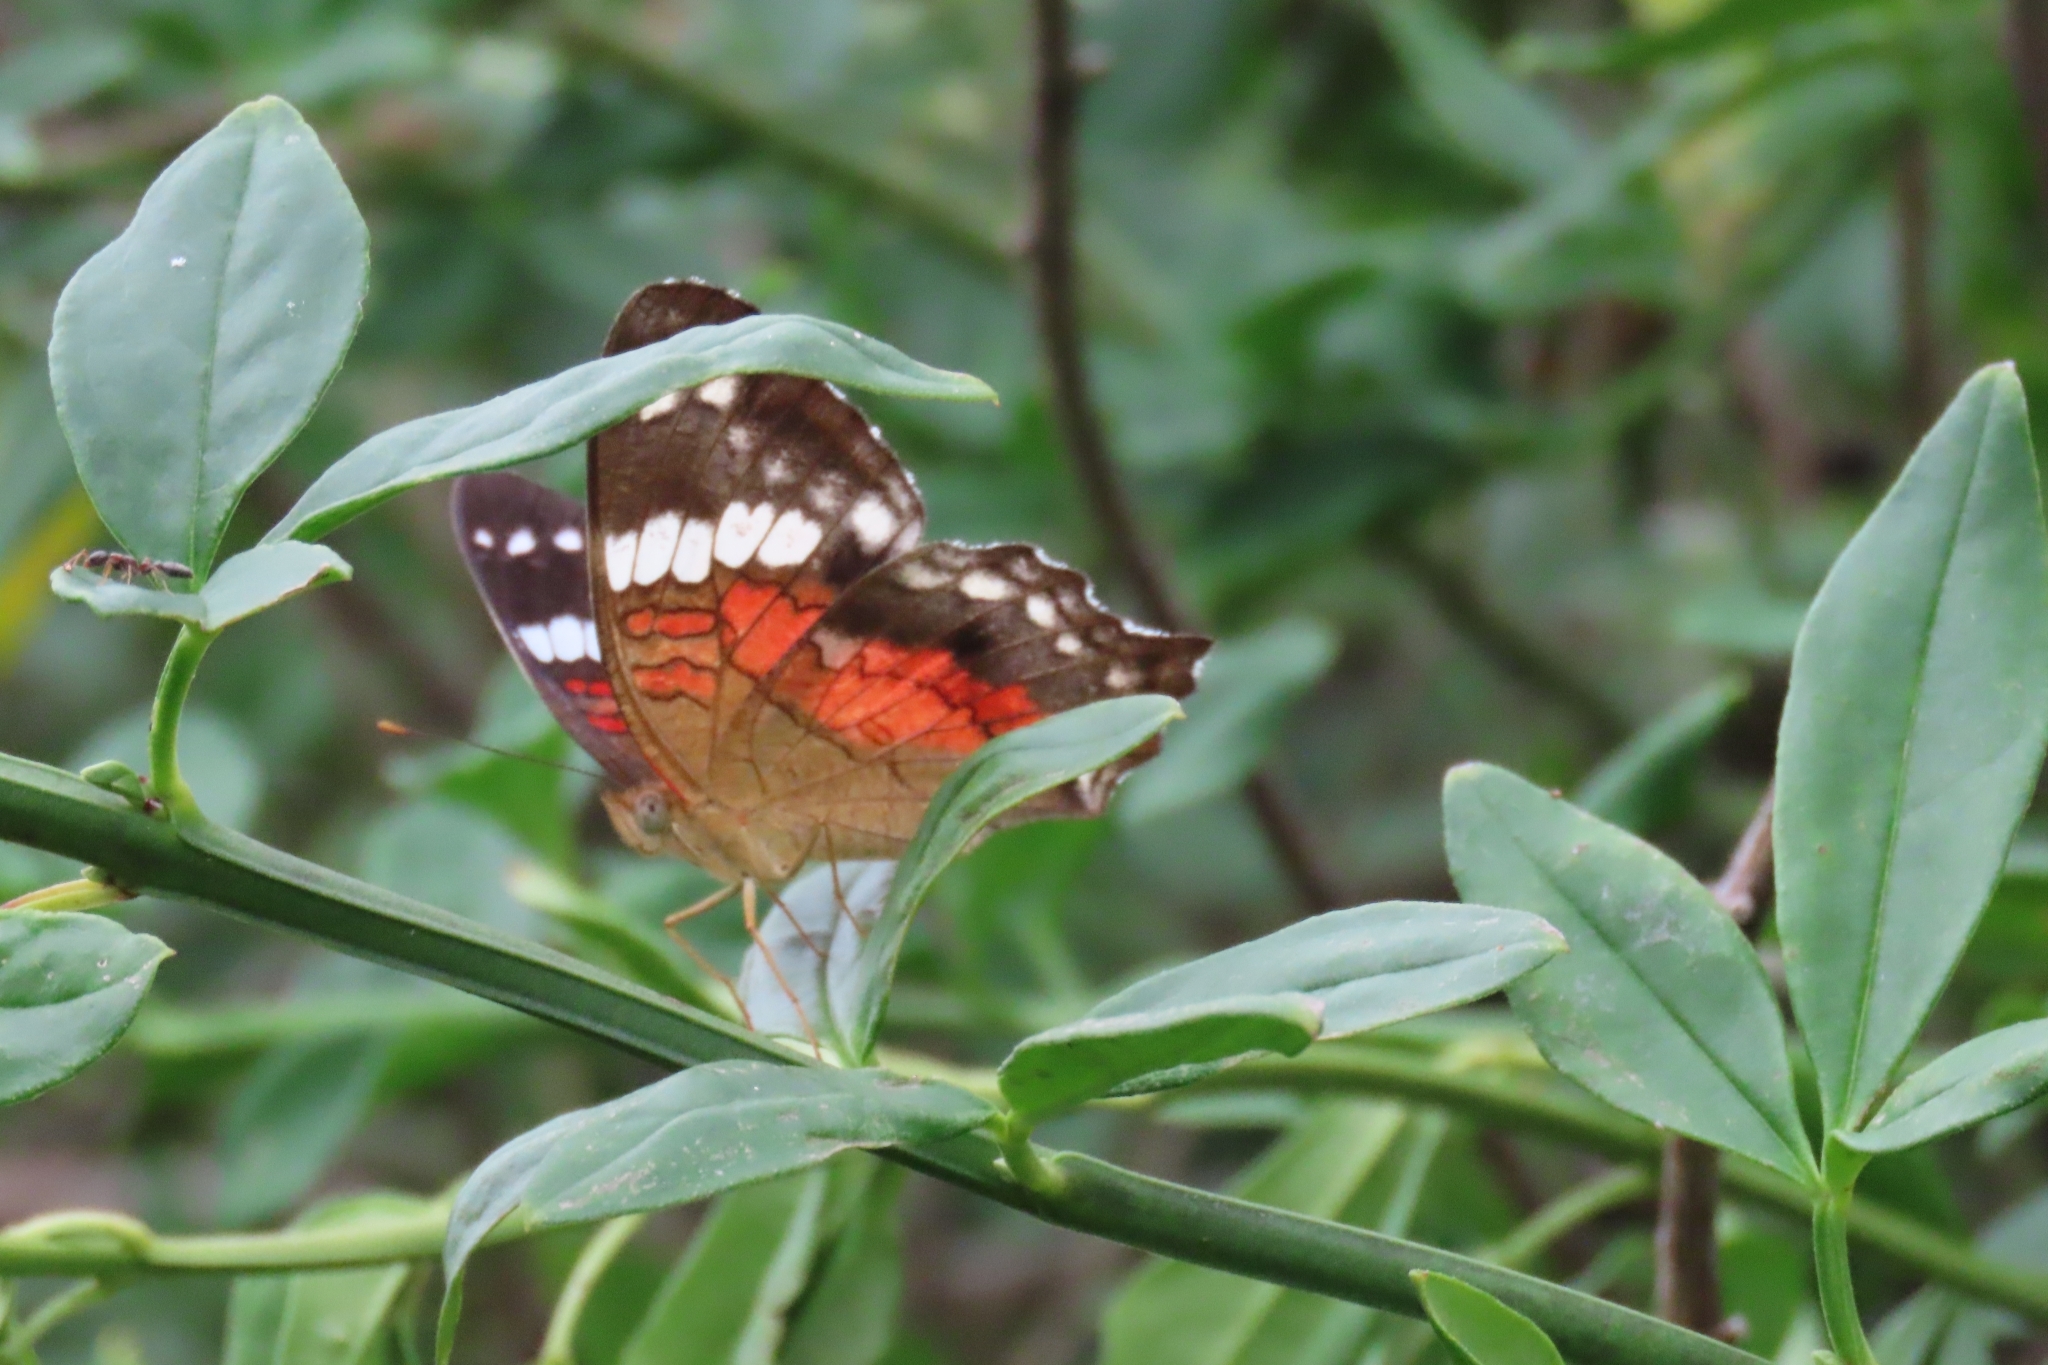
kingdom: Animalia
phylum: Arthropoda
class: Insecta
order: Lepidoptera
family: Nymphalidae
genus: Anartia
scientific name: Anartia amathea
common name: Red peacock
